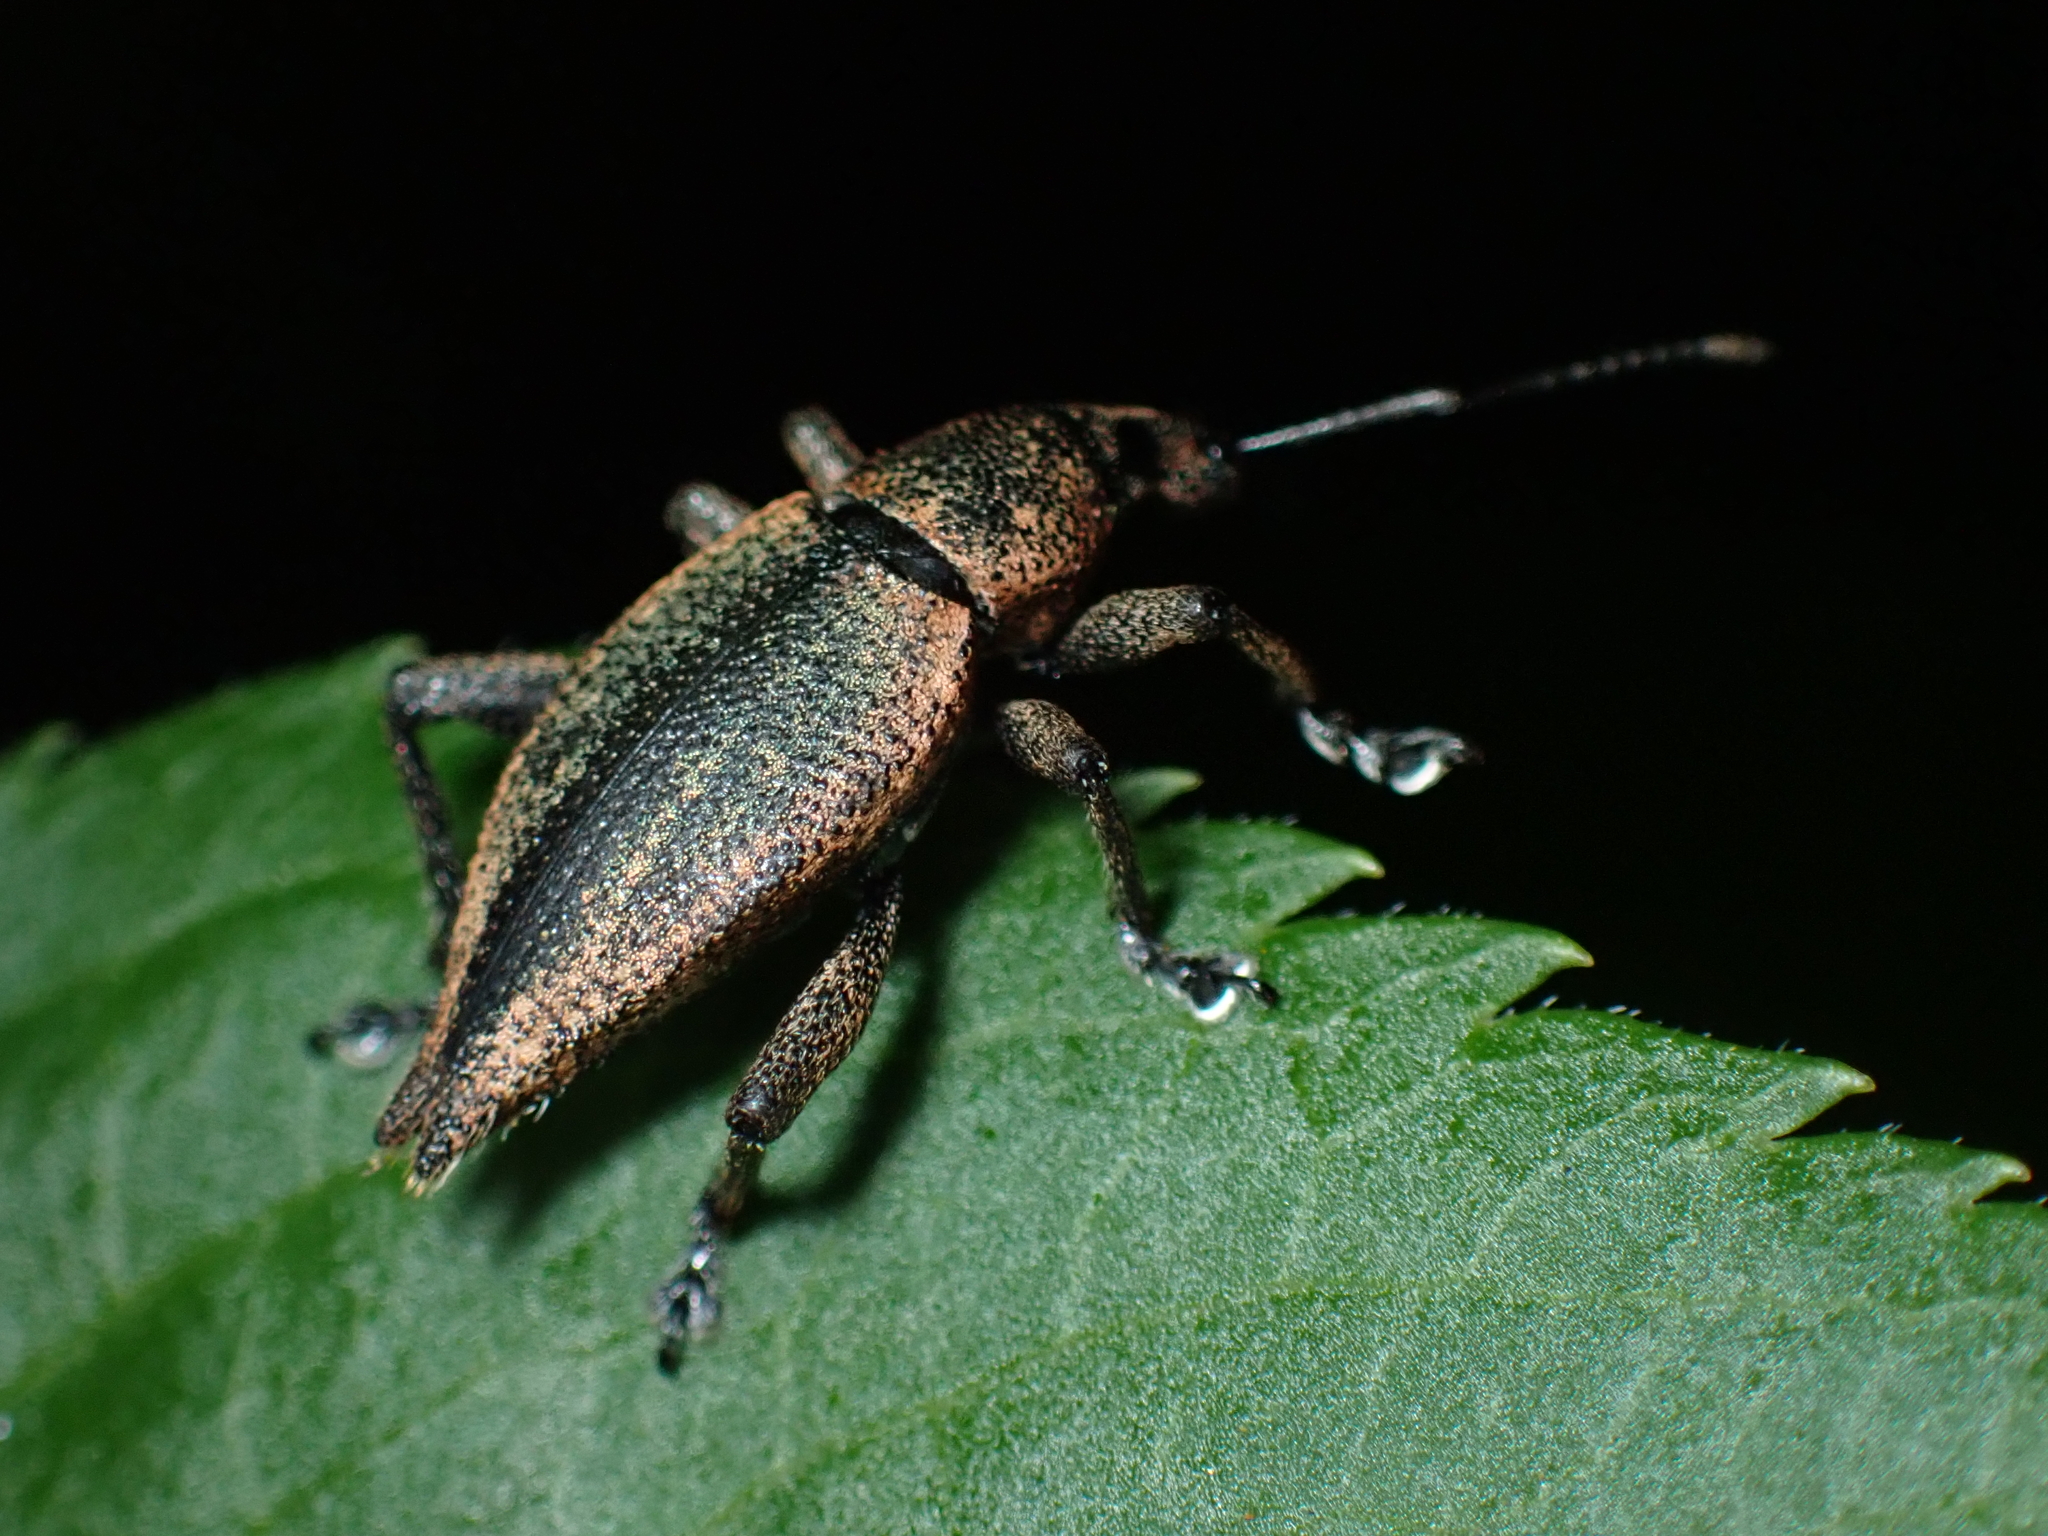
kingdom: Animalia
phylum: Arthropoda
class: Insecta
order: Coleoptera
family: Curculionidae
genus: Elytrurus
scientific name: Elytrurus marginatus
